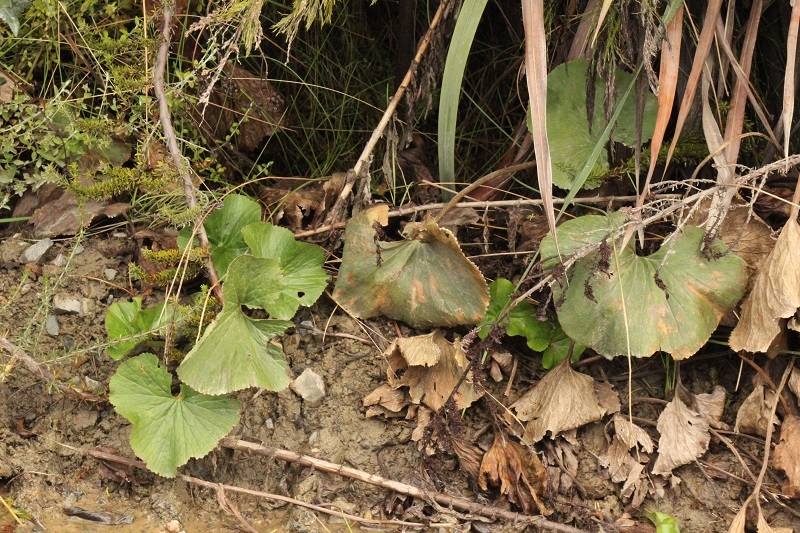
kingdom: Plantae
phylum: Tracheophyta
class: Magnoliopsida
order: Gunnerales
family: Gunneraceae
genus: Gunnera
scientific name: Gunnera perpensa
